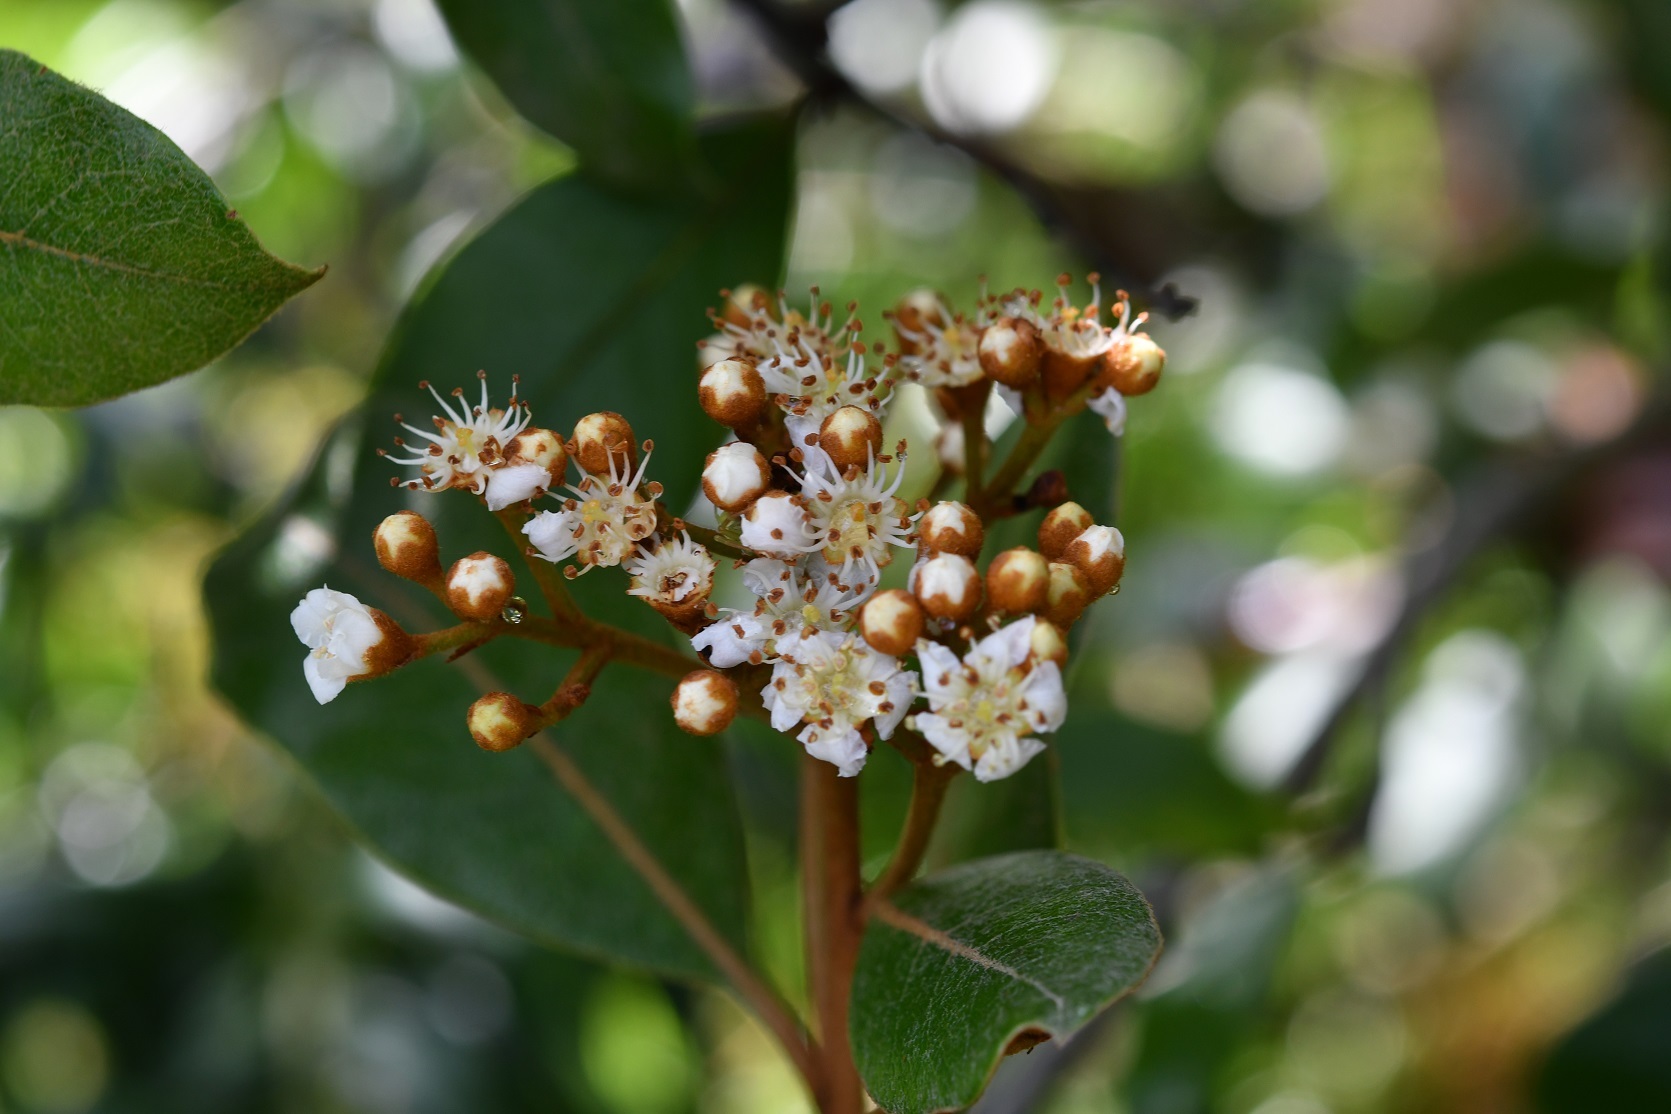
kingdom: Plantae
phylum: Tracheophyta
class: Magnoliopsida
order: Rosales
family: Rosaceae
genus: Phippsiomeles
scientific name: Phippsiomeles matudae
